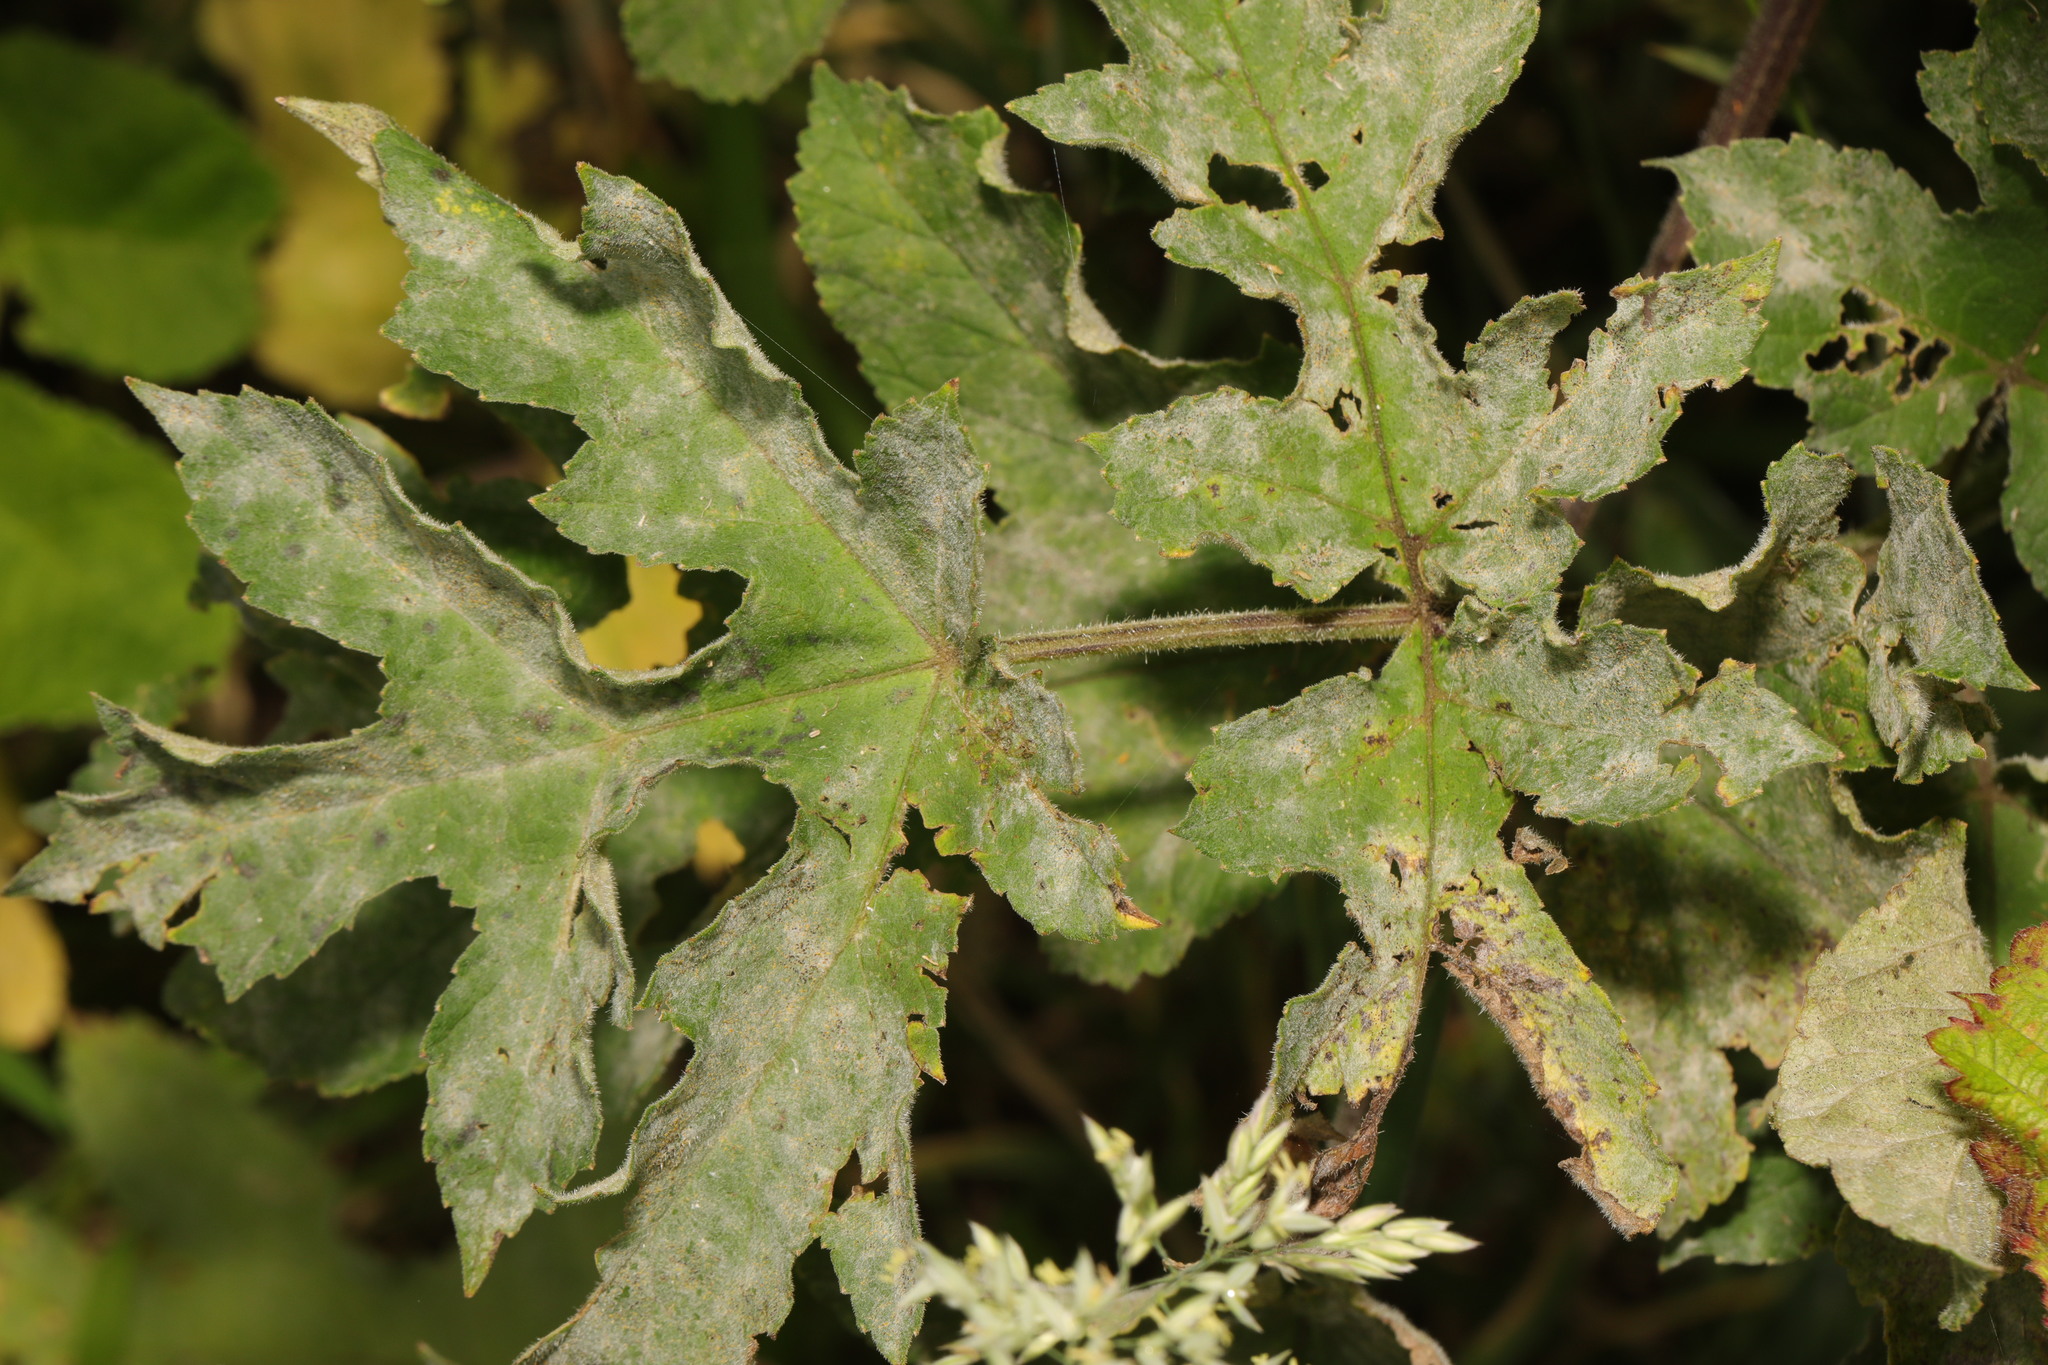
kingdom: Plantae
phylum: Tracheophyta
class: Magnoliopsida
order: Apiales
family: Apiaceae
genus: Heracleum
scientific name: Heracleum sphondylium
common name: Hogweed
